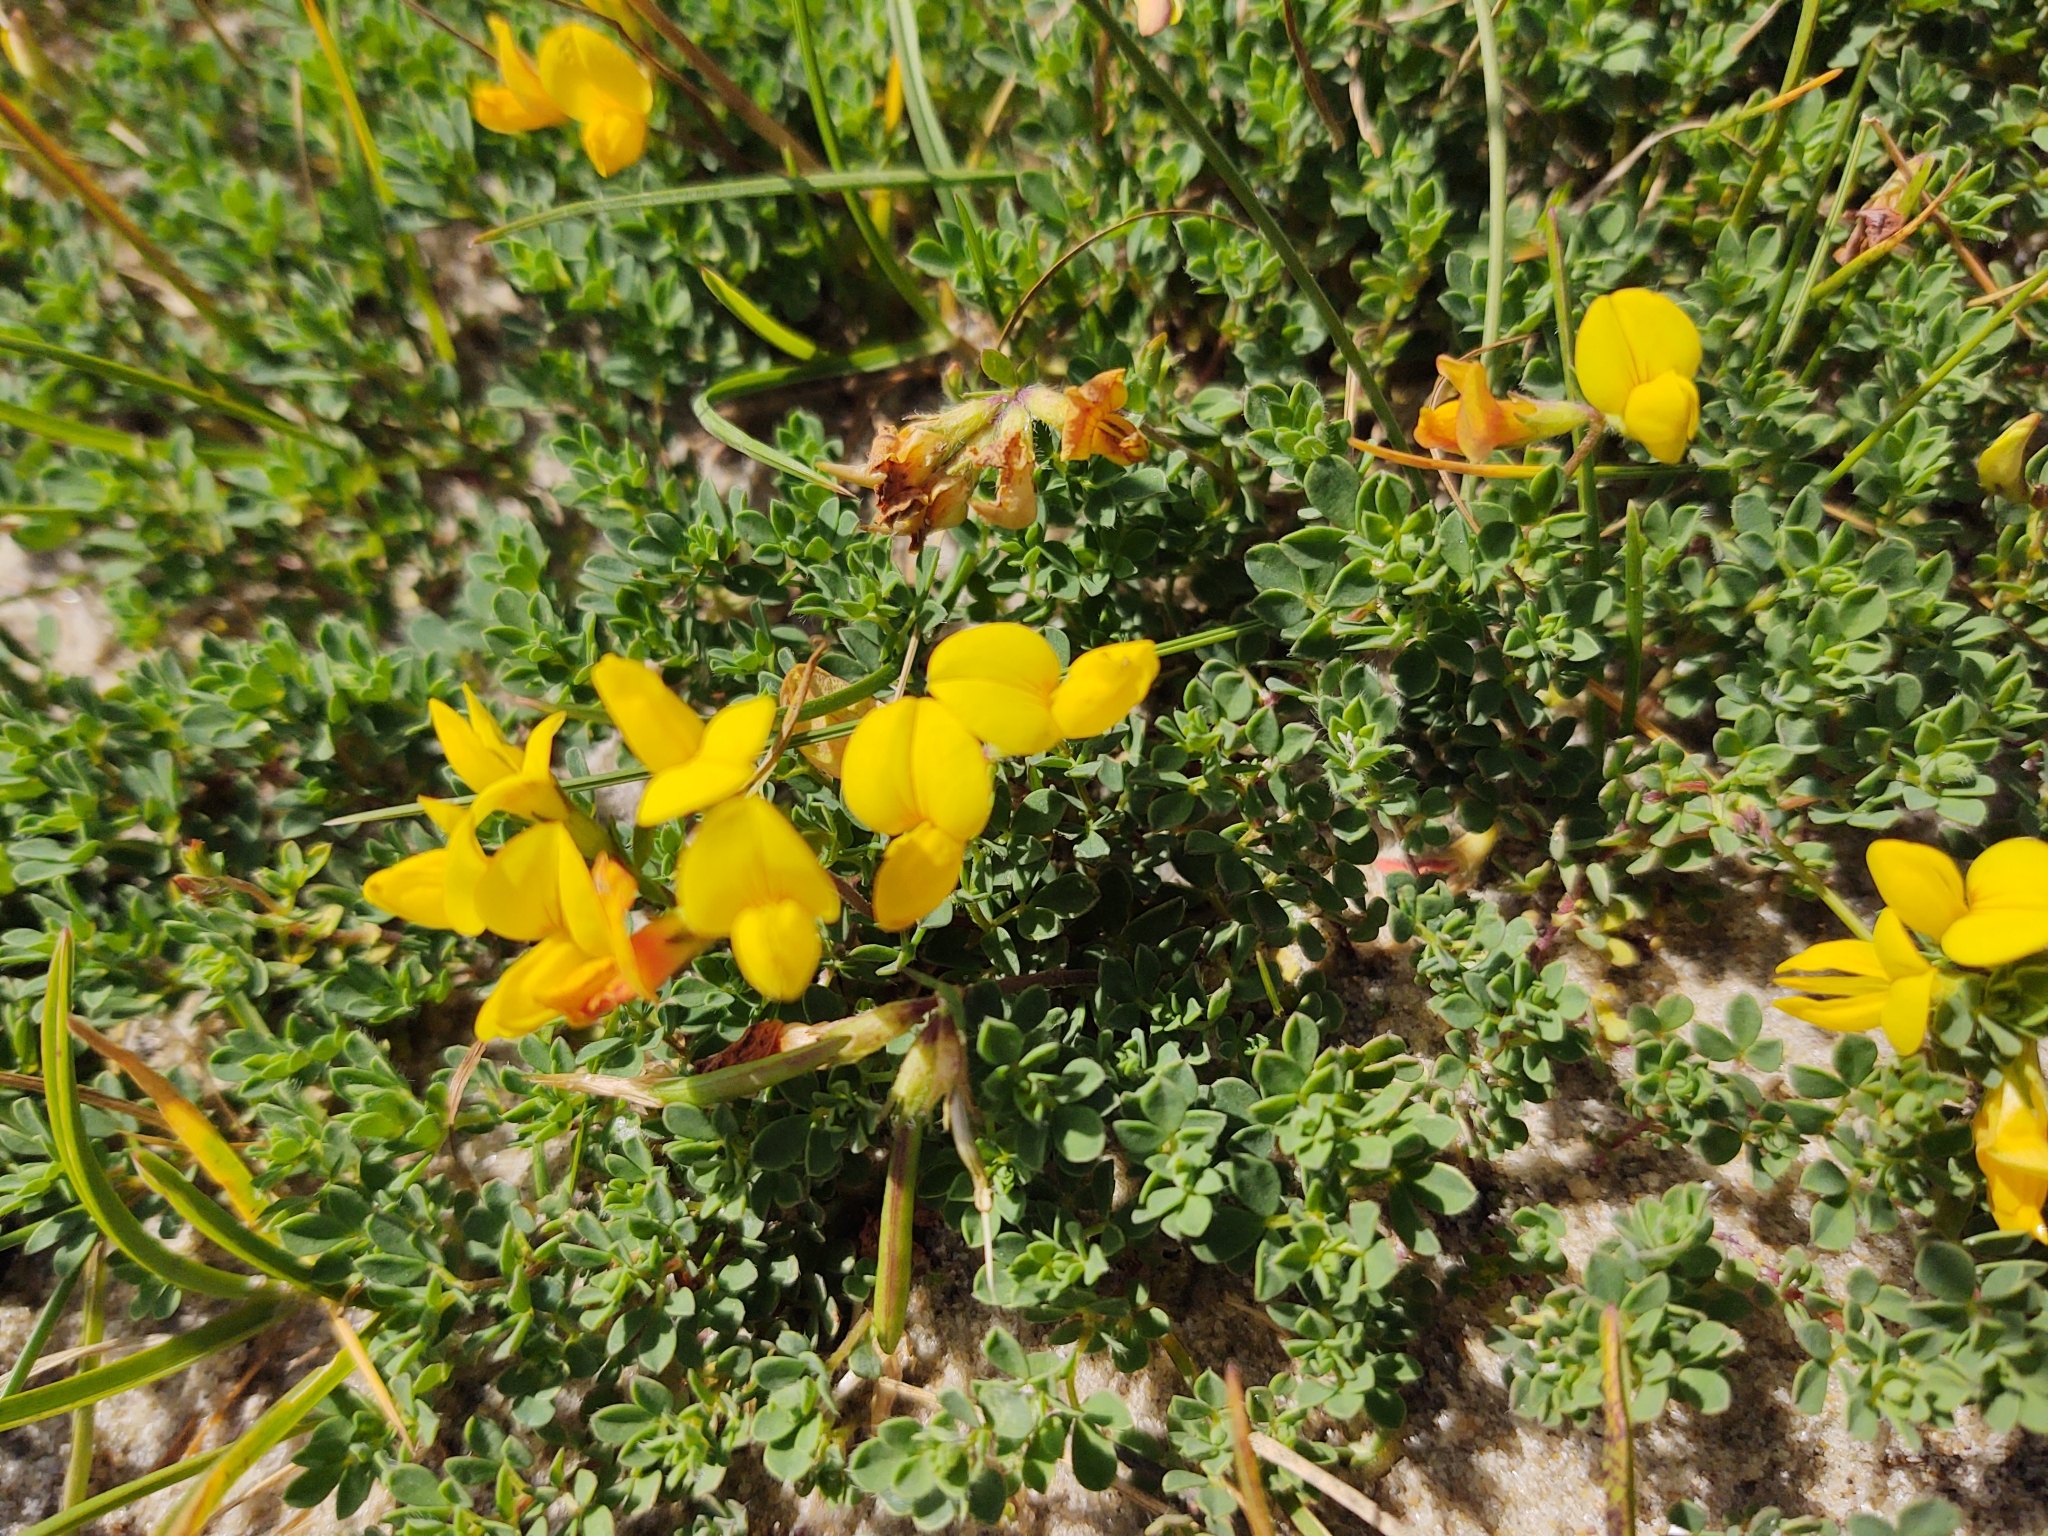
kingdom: Plantae
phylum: Tracheophyta
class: Magnoliopsida
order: Fabales
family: Fabaceae
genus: Lotus
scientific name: Lotus corniculatus
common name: Common bird's-foot-trefoil
